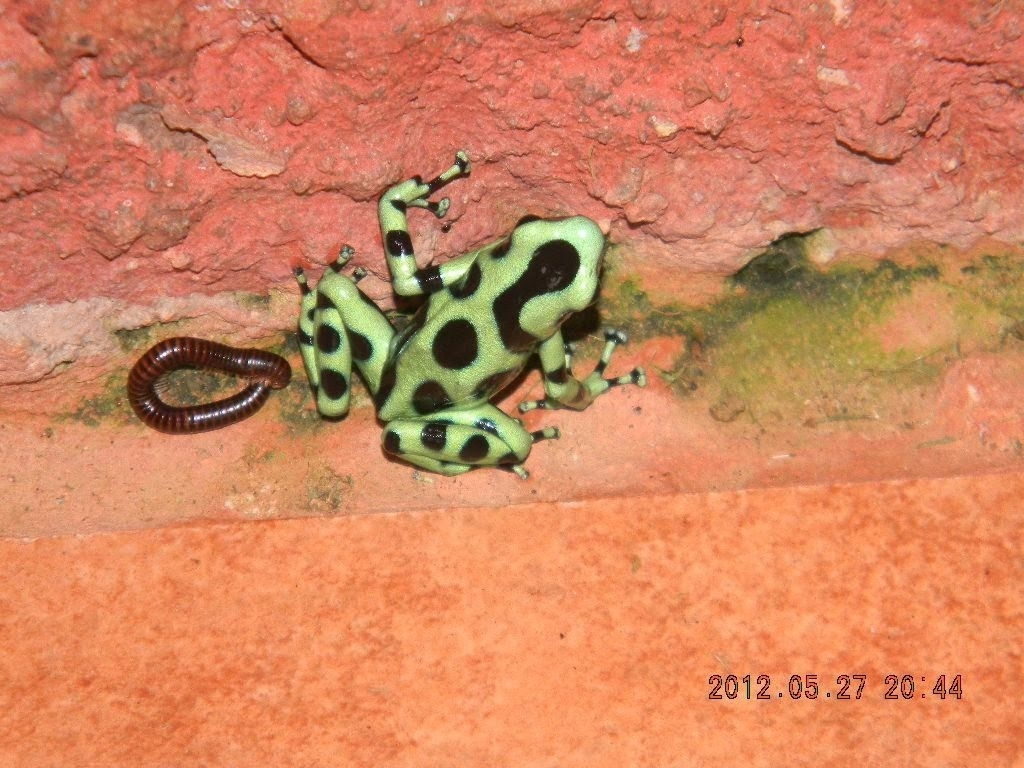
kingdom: Animalia
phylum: Chordata
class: Amphibia
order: Anura
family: Dendrobatidae
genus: Dendrobates
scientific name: Dendrobates auratus
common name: Green and black poison dart frog
